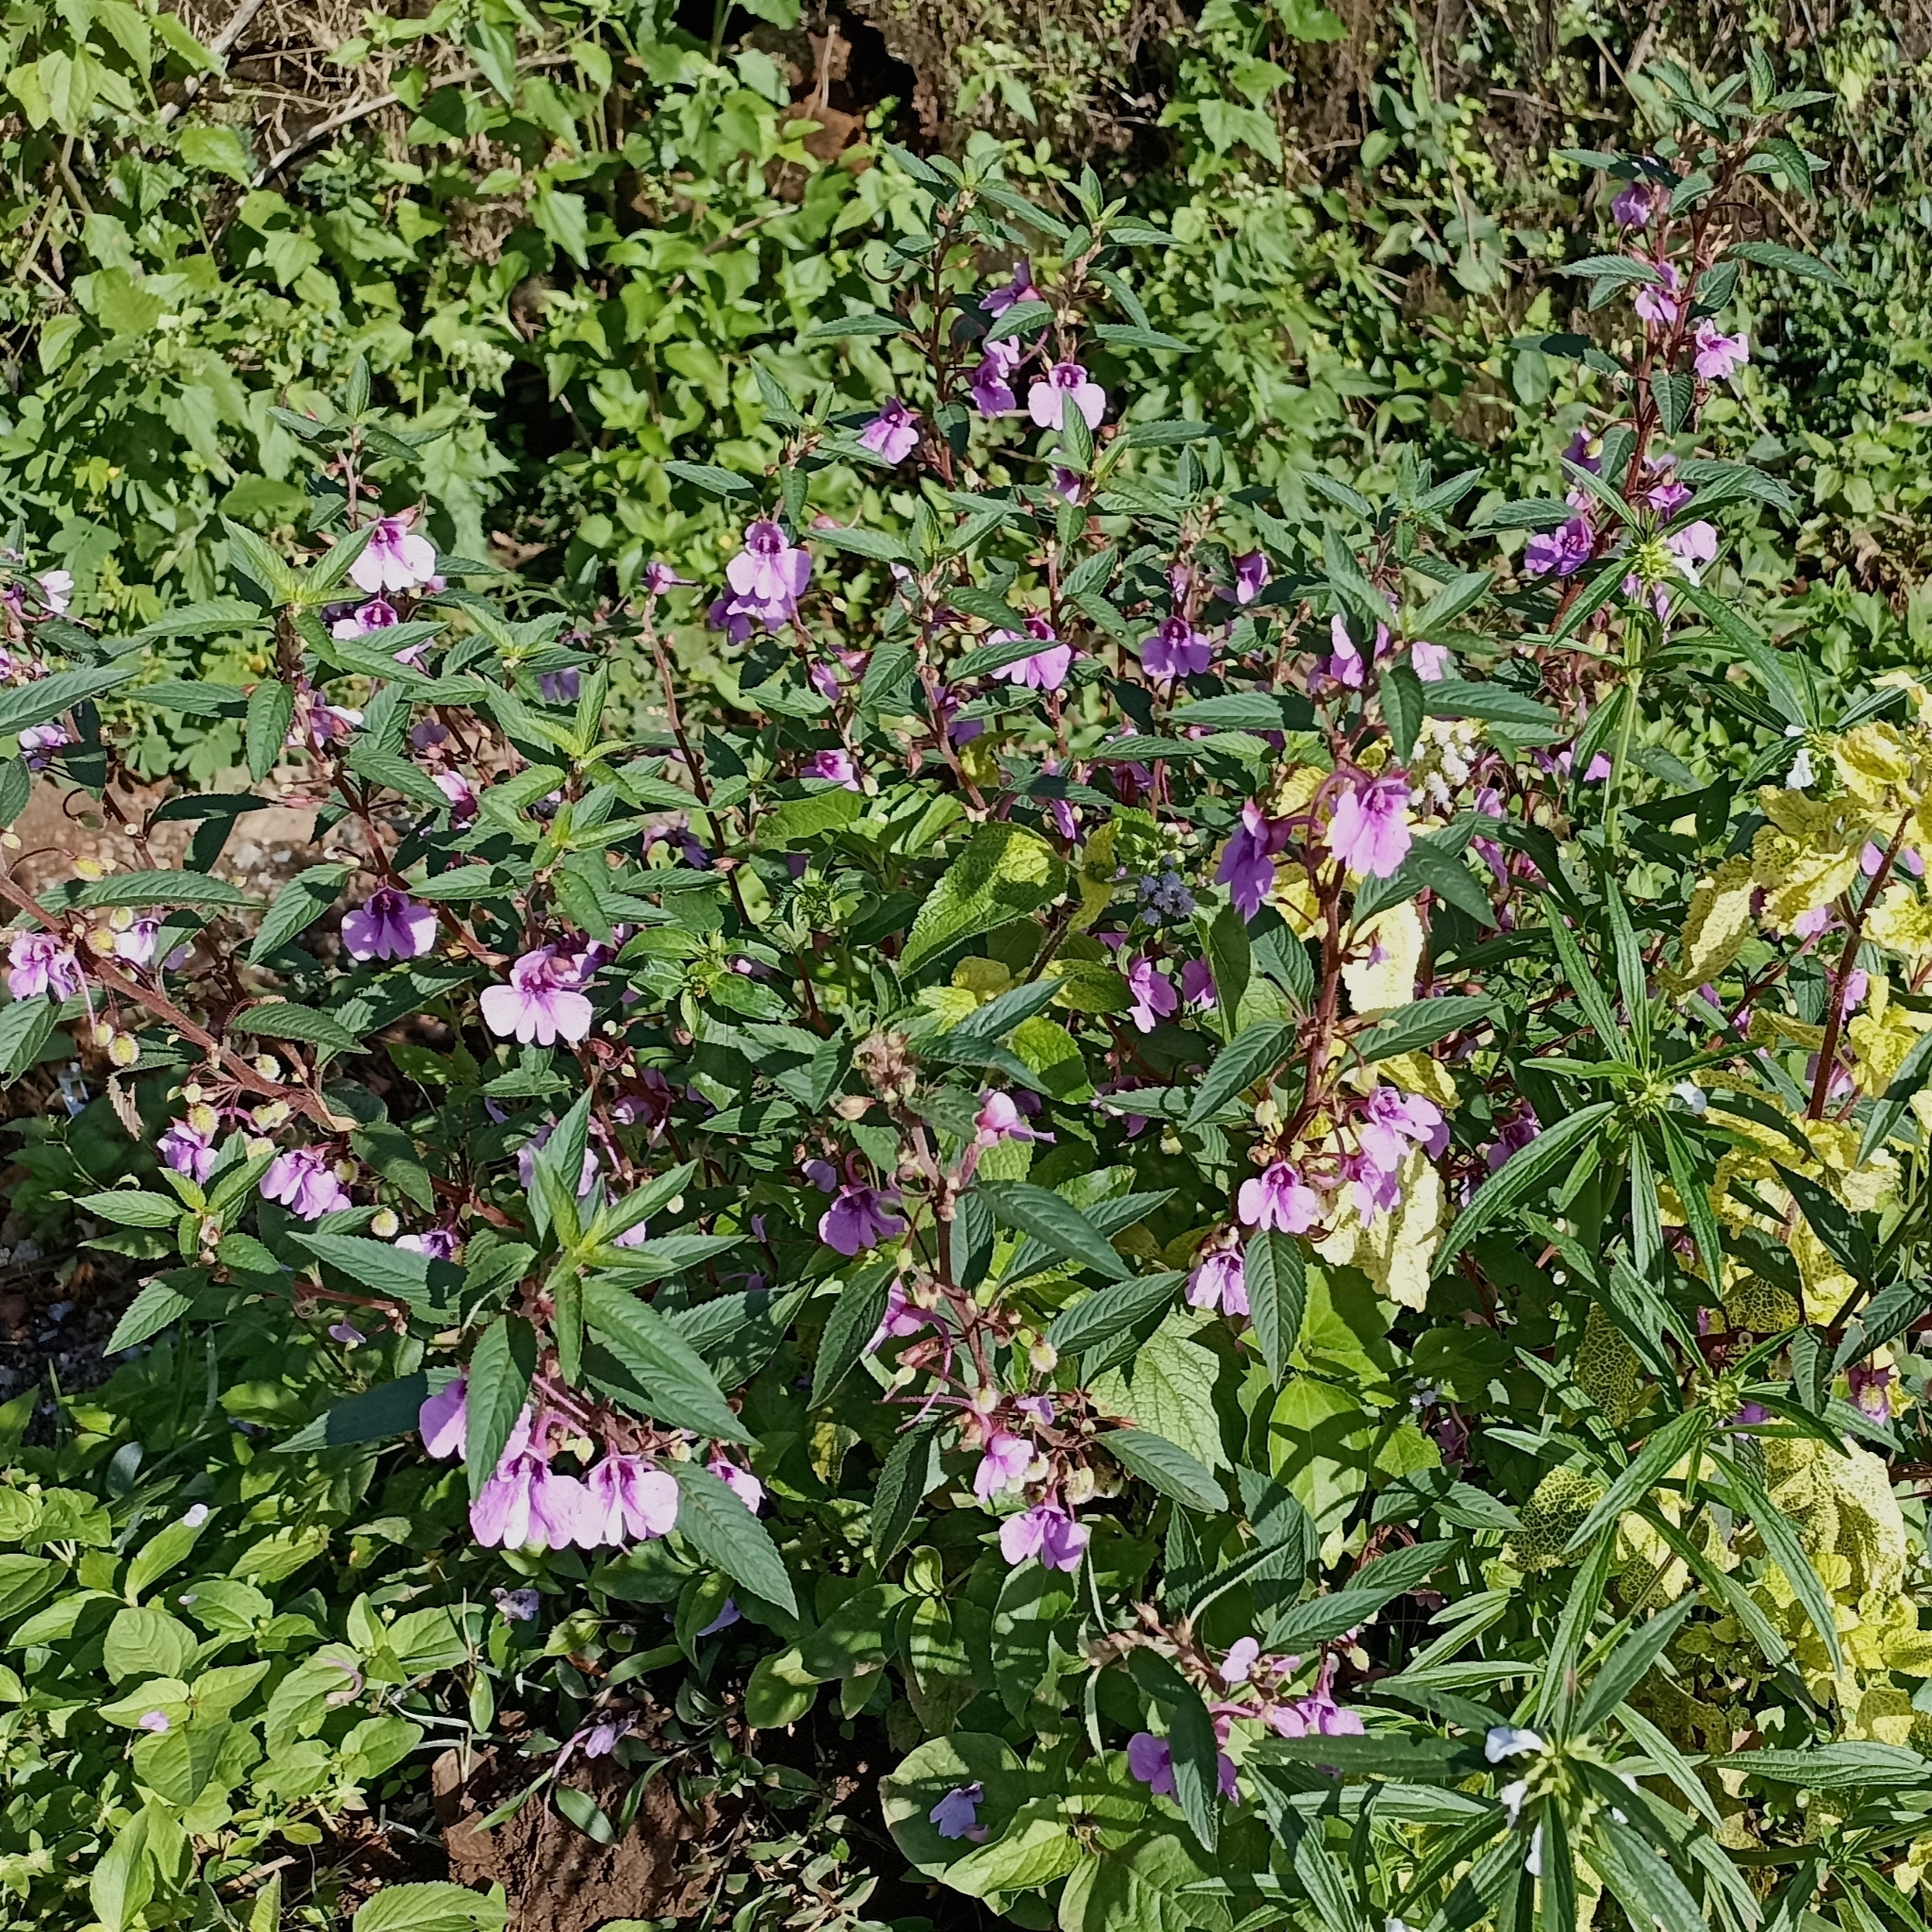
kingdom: Plantae
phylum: Tracheophyta
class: Magnoliopsida
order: Ericales
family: Balsaminaceae
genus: Impatiens
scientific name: Impatiens balsamina
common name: Balsam
